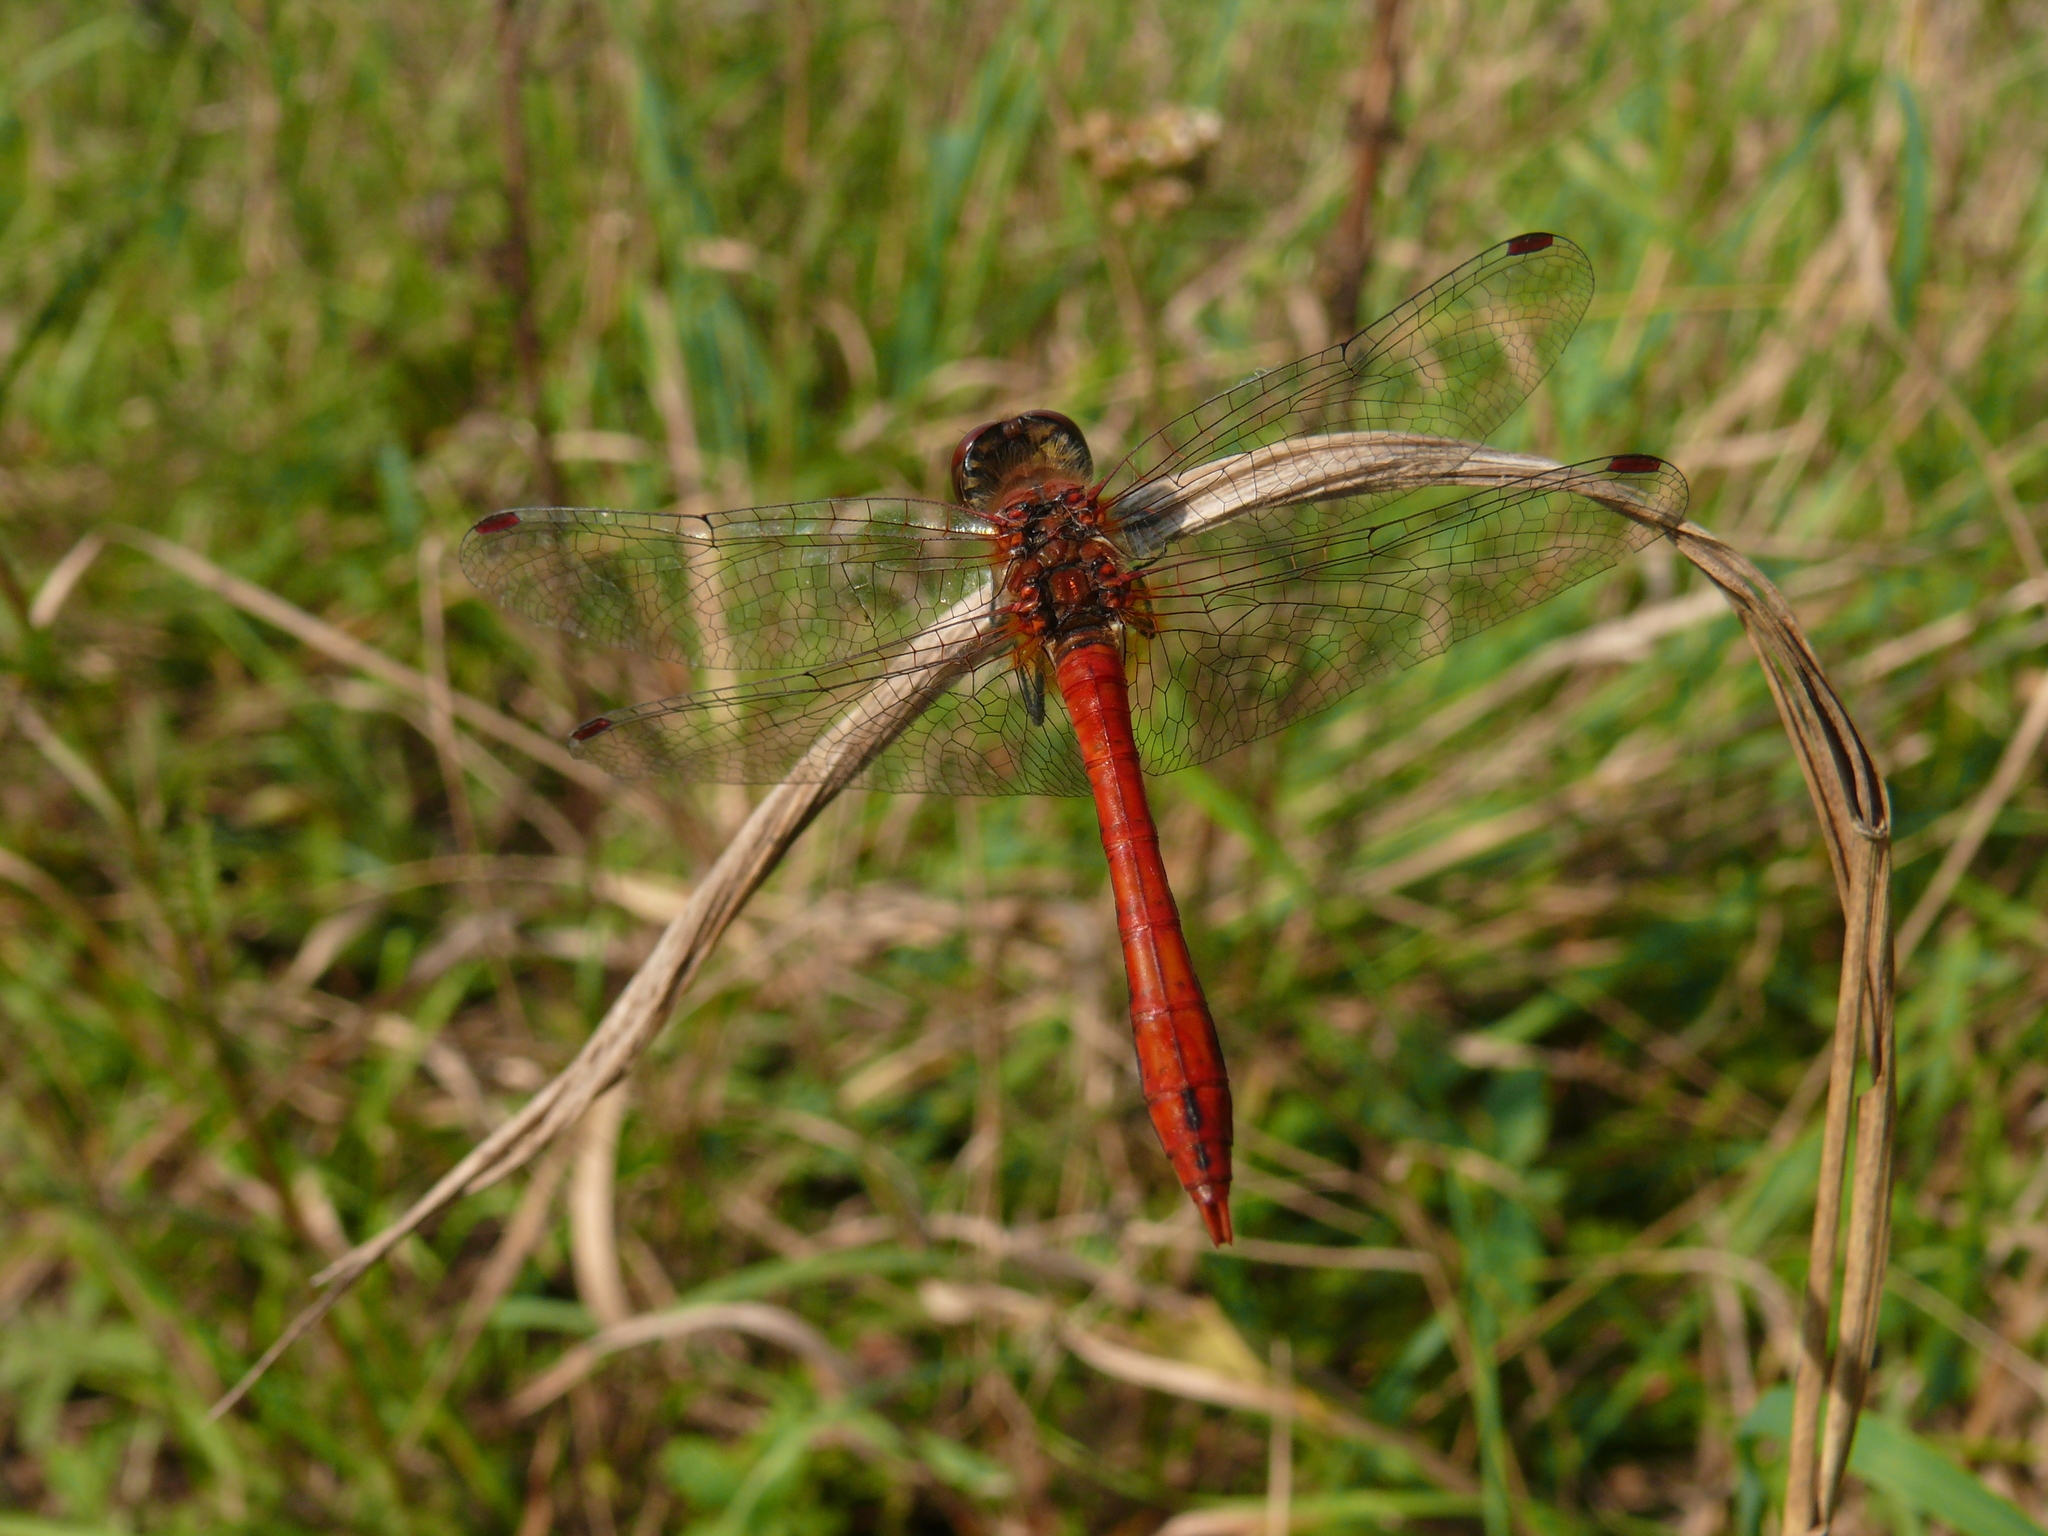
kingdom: Animalia
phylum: Arthropoda
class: Insecta
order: Odonata
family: Libellulidae
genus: Sympetrum
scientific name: Sympetrum sanguineum
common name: Ruddy darter
